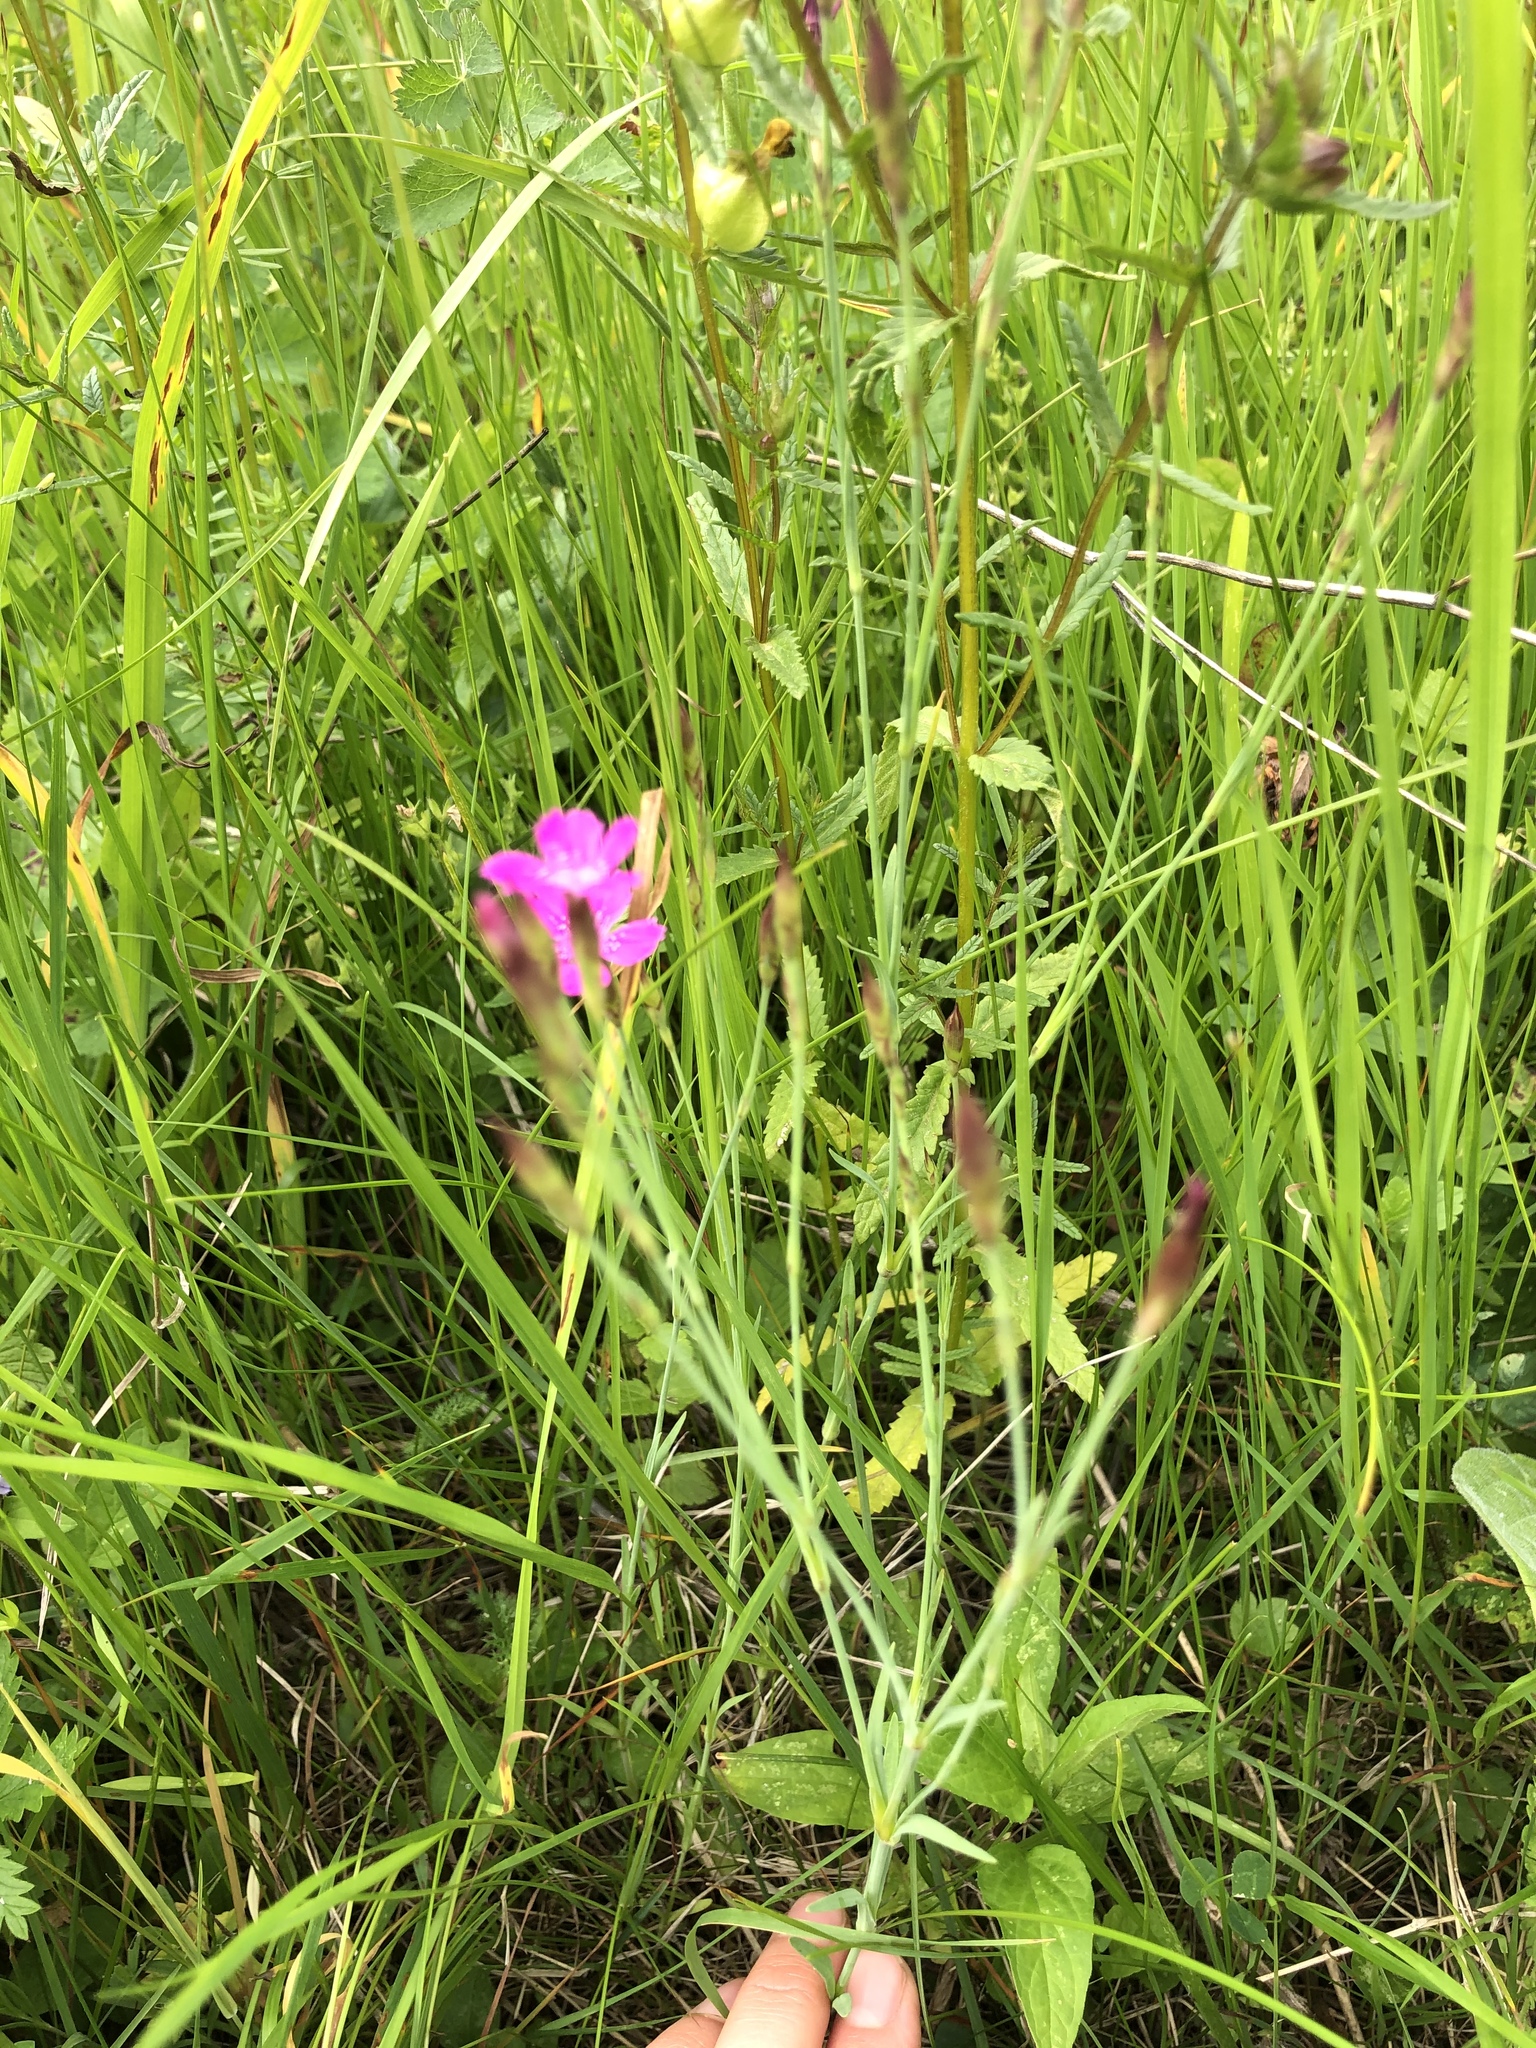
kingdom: Plantae
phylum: Tracheophyta
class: Magnoliopsida
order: Caryophyllales
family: Caryophyllaceae
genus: Dianthus
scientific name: Dianthus deltoides
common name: Maiden pink
